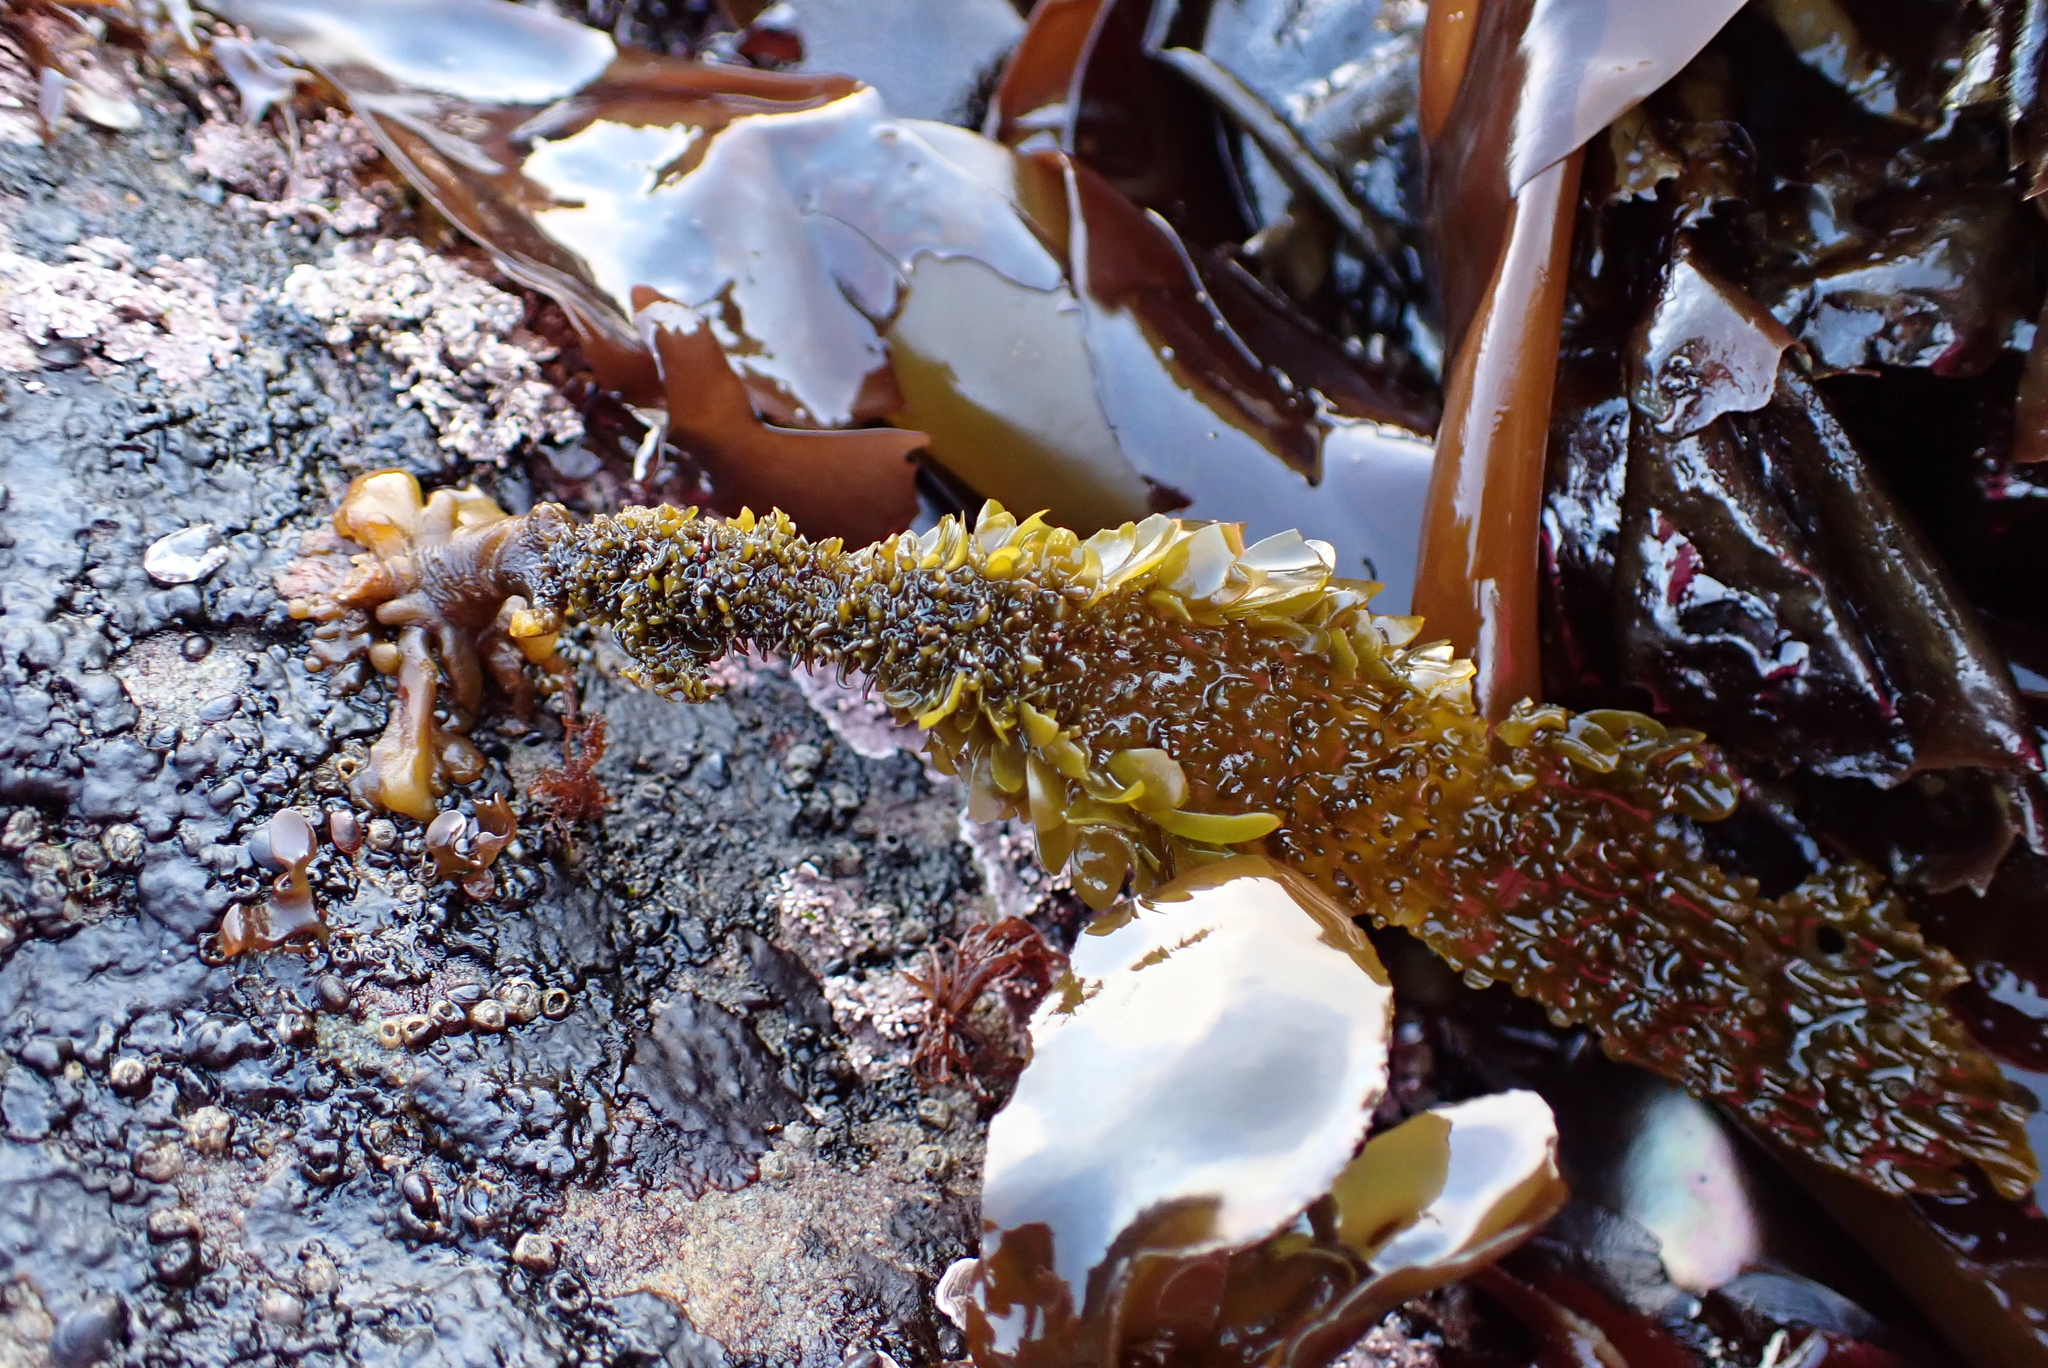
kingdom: Chromista
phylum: Ochrophyta
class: Phaeophyceae
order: Laminariales
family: Lessoniaceae
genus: Egregia
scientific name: Egregia menziesii
